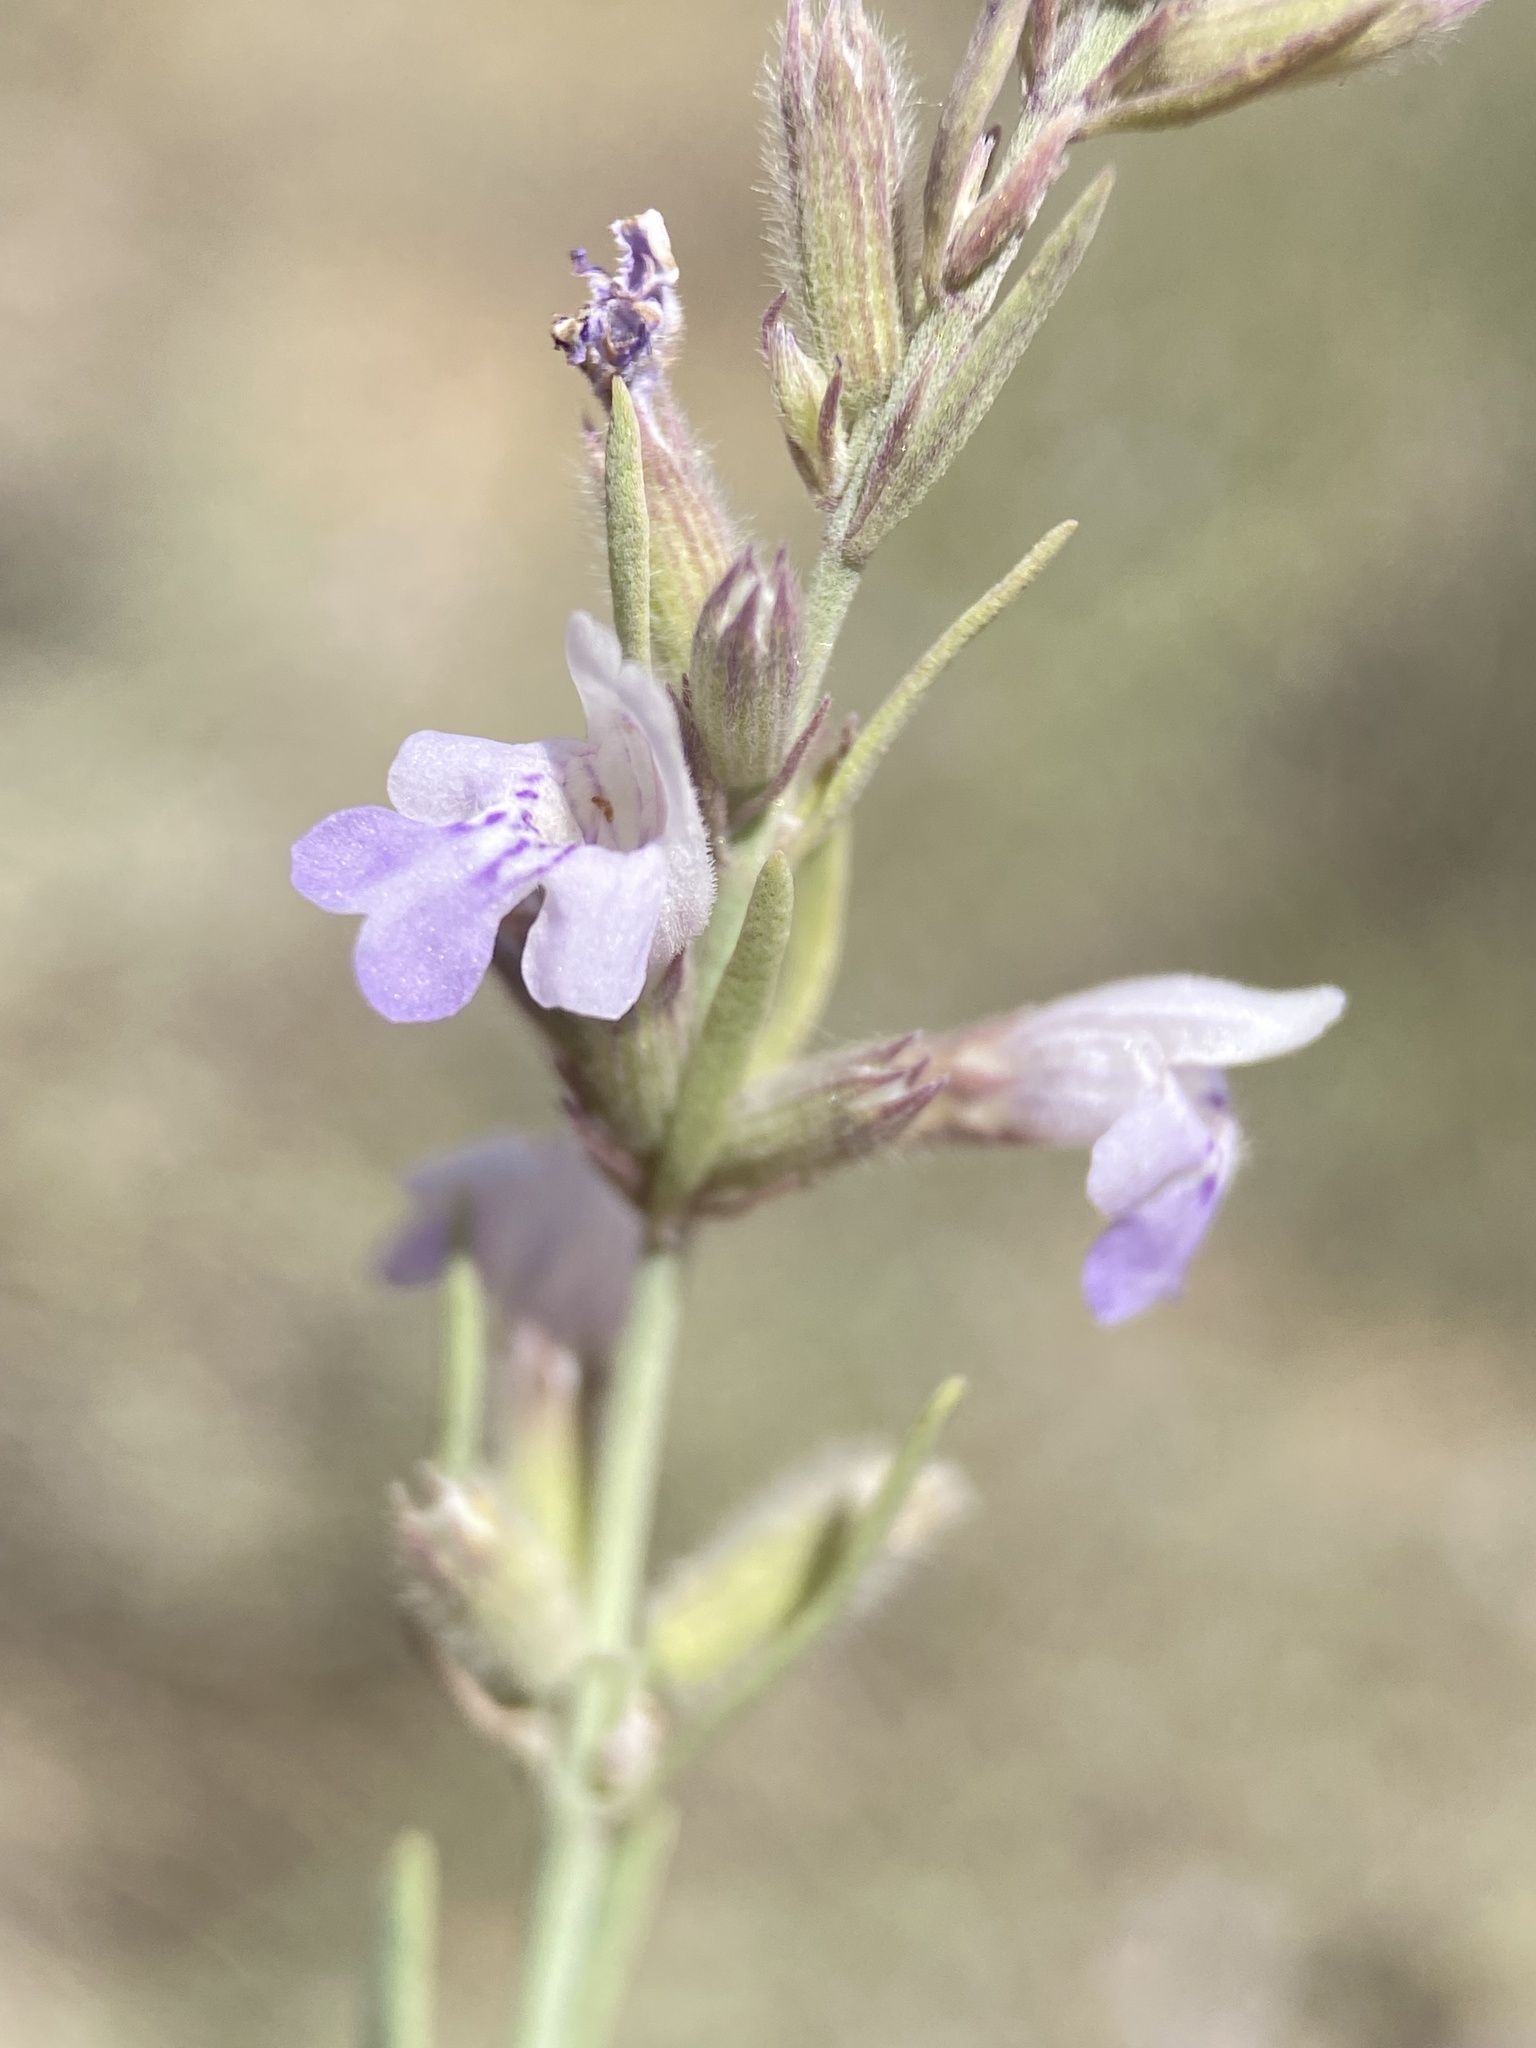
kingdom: Plantae
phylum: Tracheophyta
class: Magnoliopsida
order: Lamiales
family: Lamiaceae
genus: Poliomintha
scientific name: Poliomintha incana
